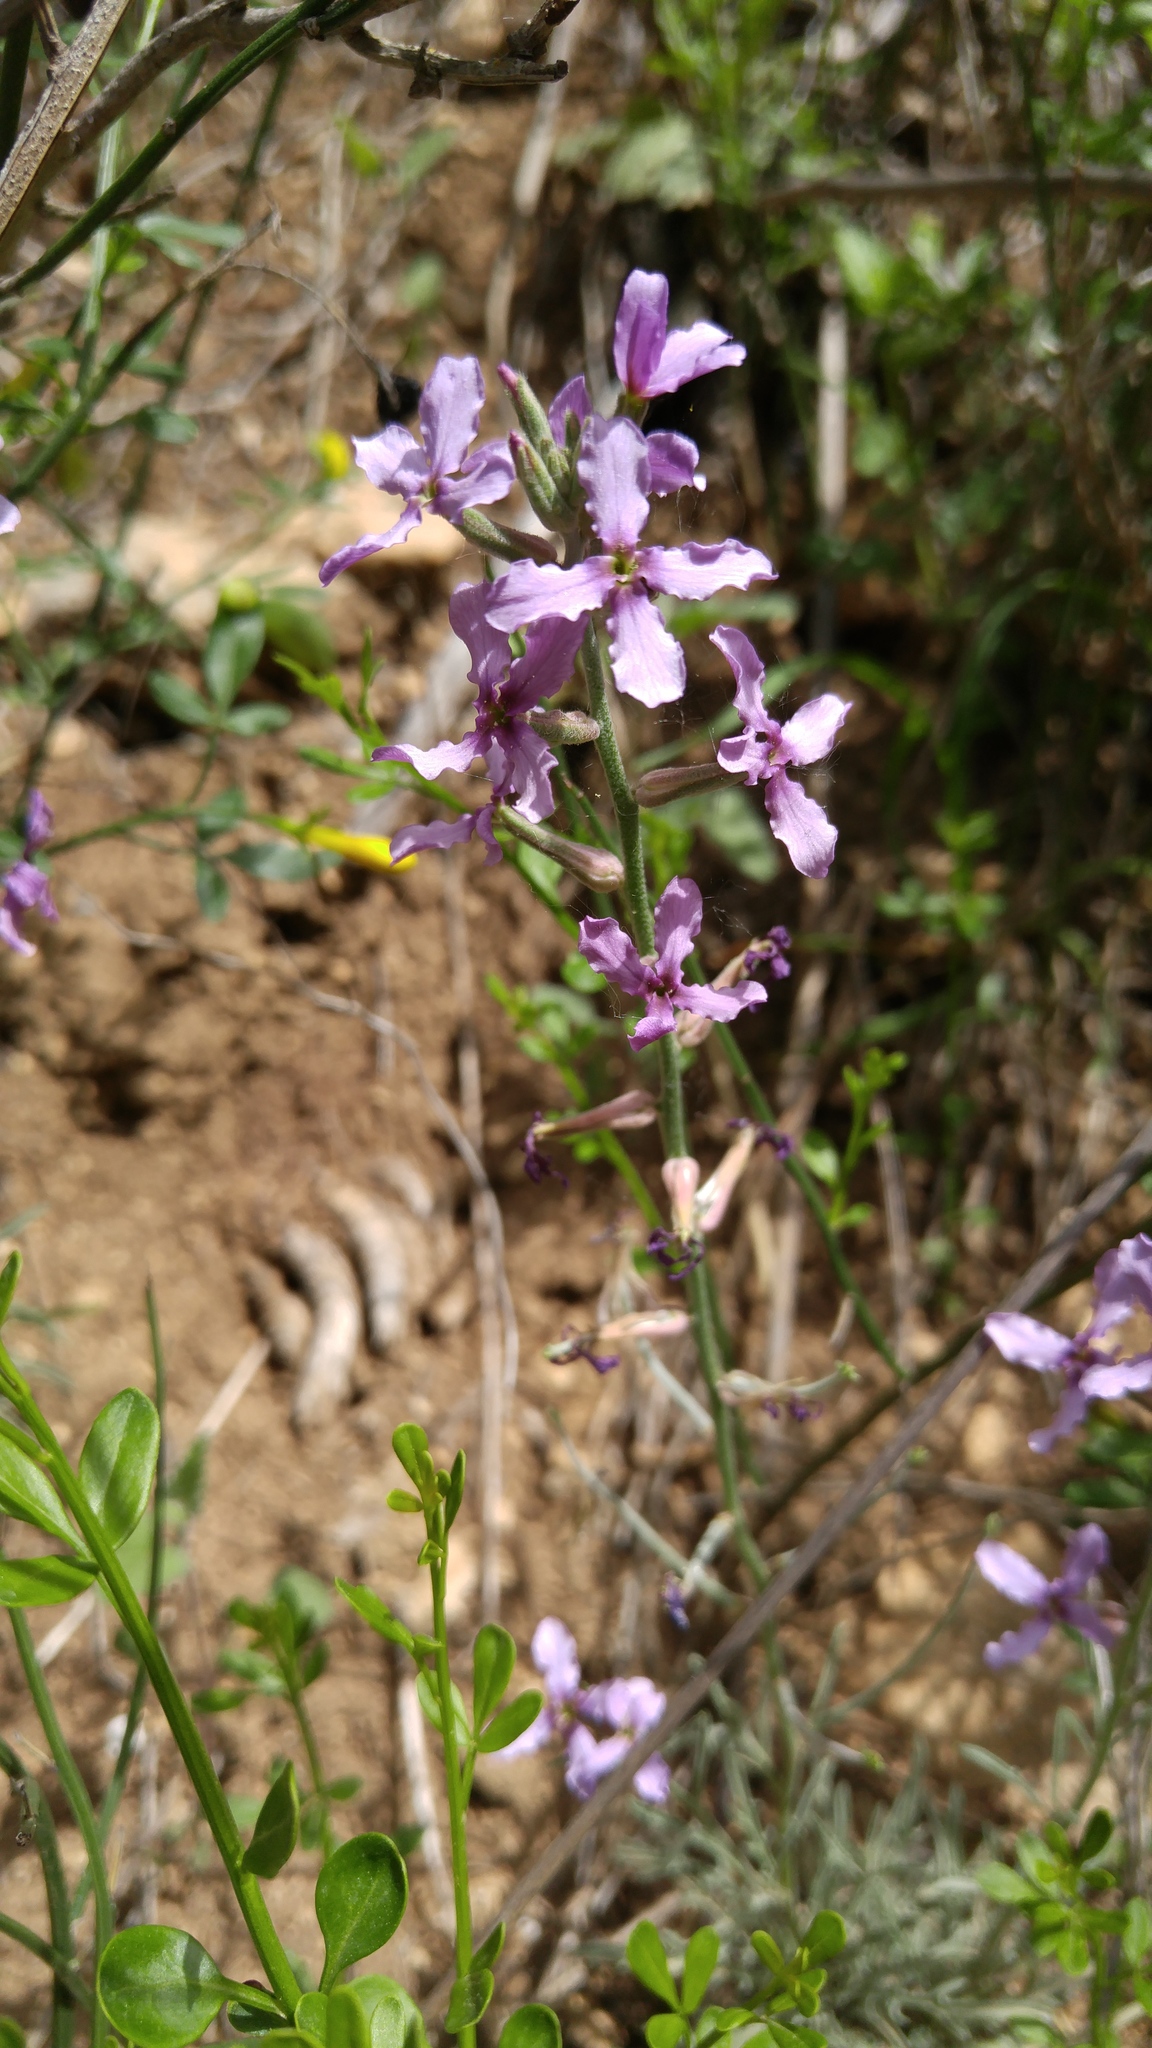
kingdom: Plantae
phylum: Tracheophyta
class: Magnoliopsida
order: Brassicales
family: Brassicaceae
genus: Matthiola
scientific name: Matthiola fruticulosa
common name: Sad stock
